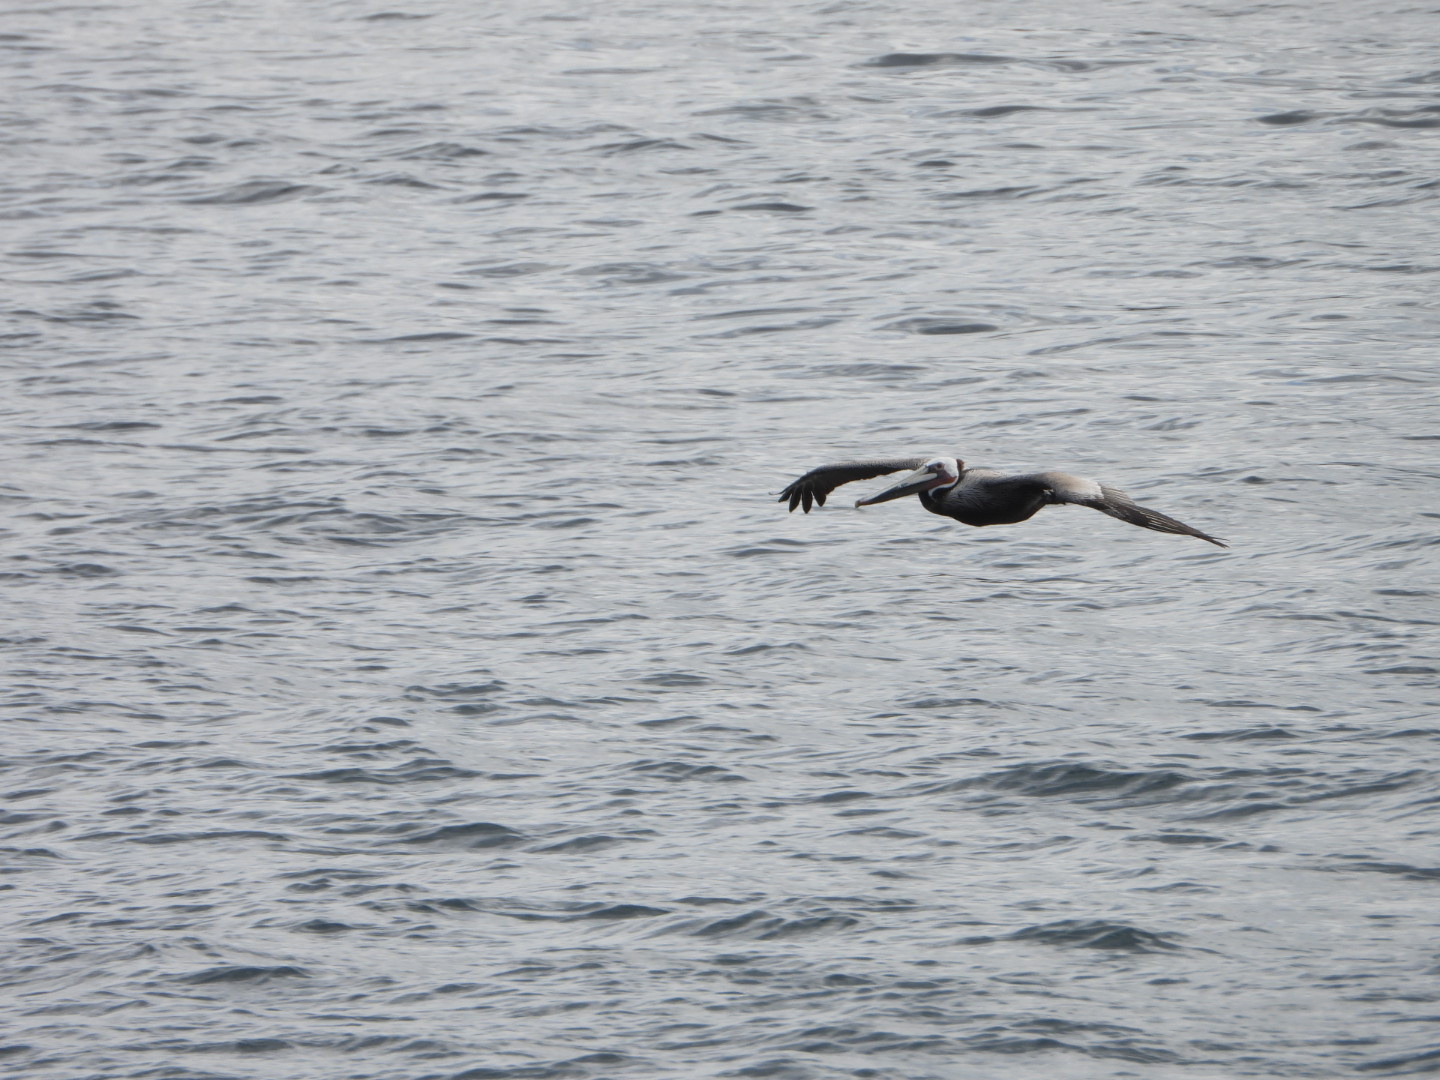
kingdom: Animalia
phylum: Chordata
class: Aves
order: Pelecaniformes
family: Pelecanidae
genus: Pelecanus
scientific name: Pelecanus occidentalis
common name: Brown pelican
